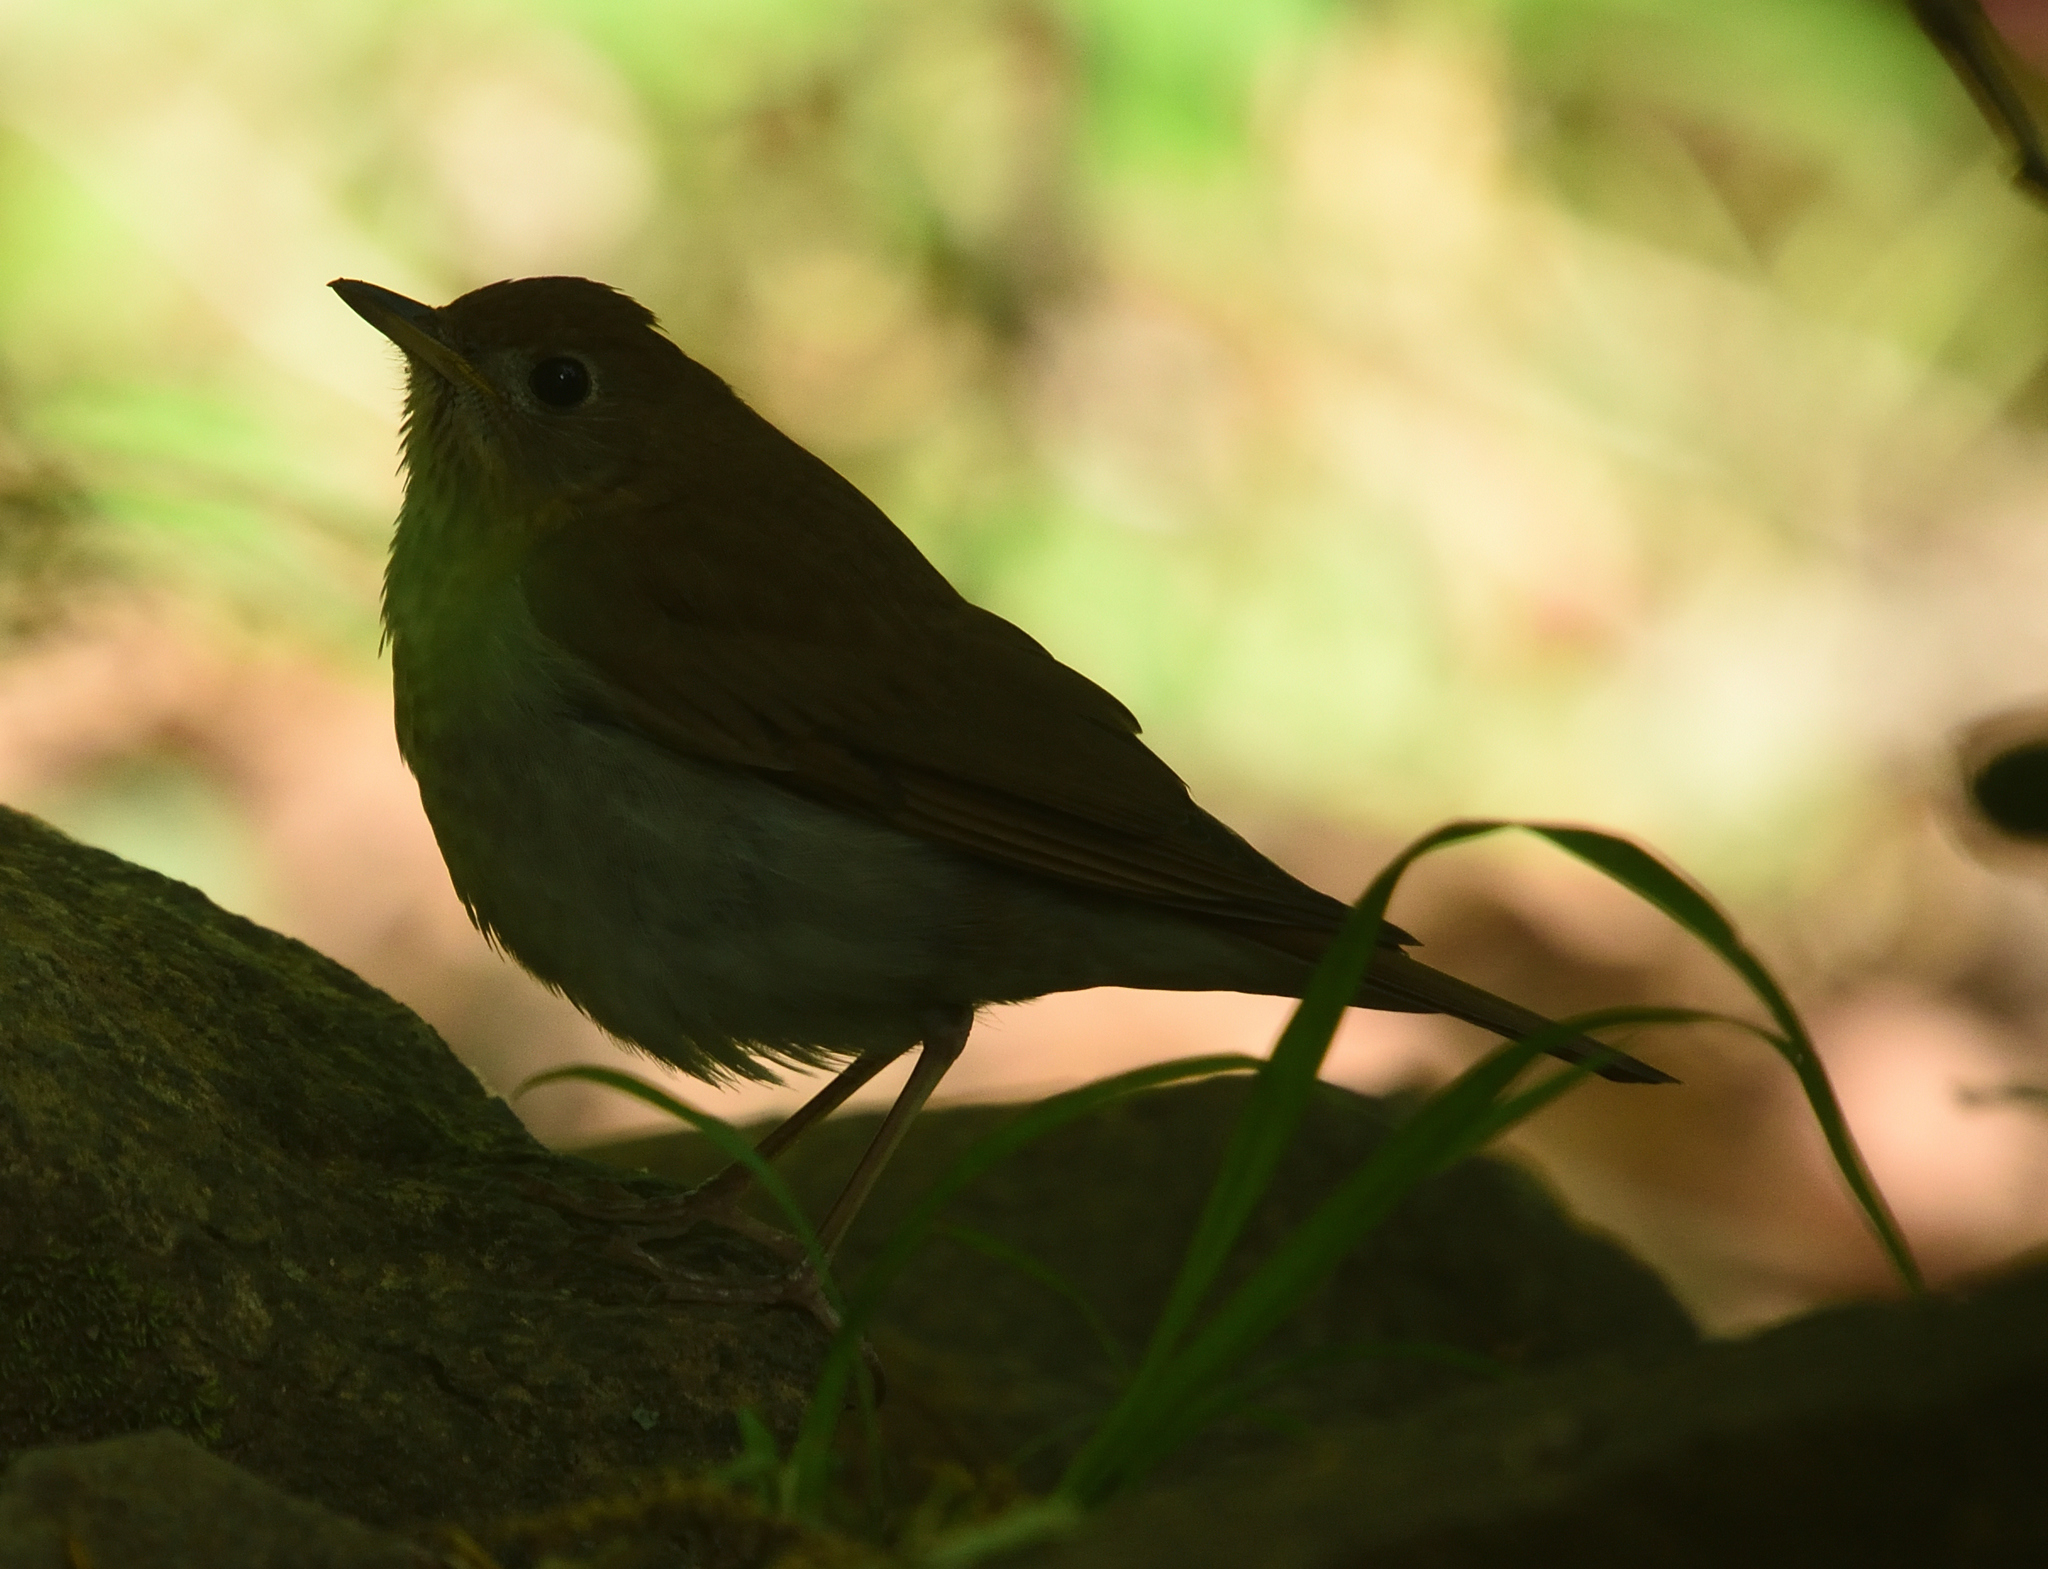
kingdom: Animalia
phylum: Chordata
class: Aves
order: Passeriformes
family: Turdidae
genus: Catharus
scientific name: Catharus fuscescens
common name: Veery
